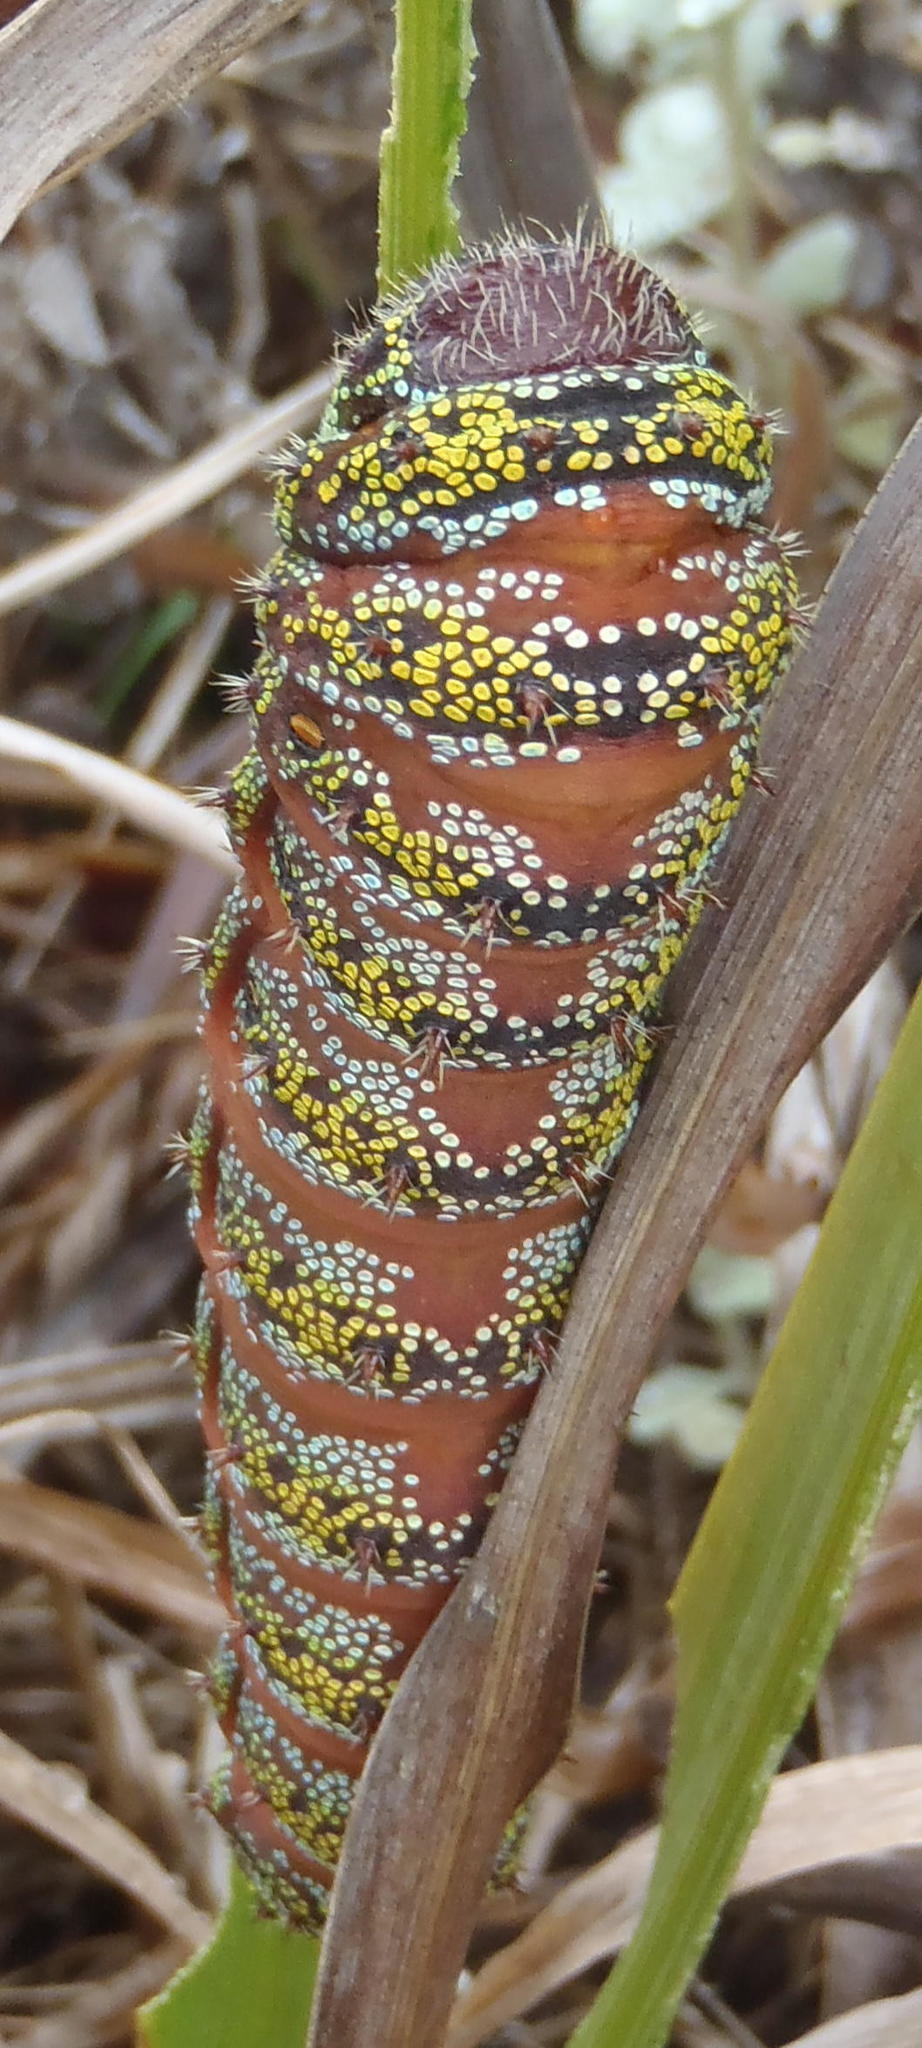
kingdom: Animalia
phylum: Arthropoda
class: Insecta
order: Lepidoptera
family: Saturniidae
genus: Nudaurelia
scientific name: Nudaurelia cytherea
